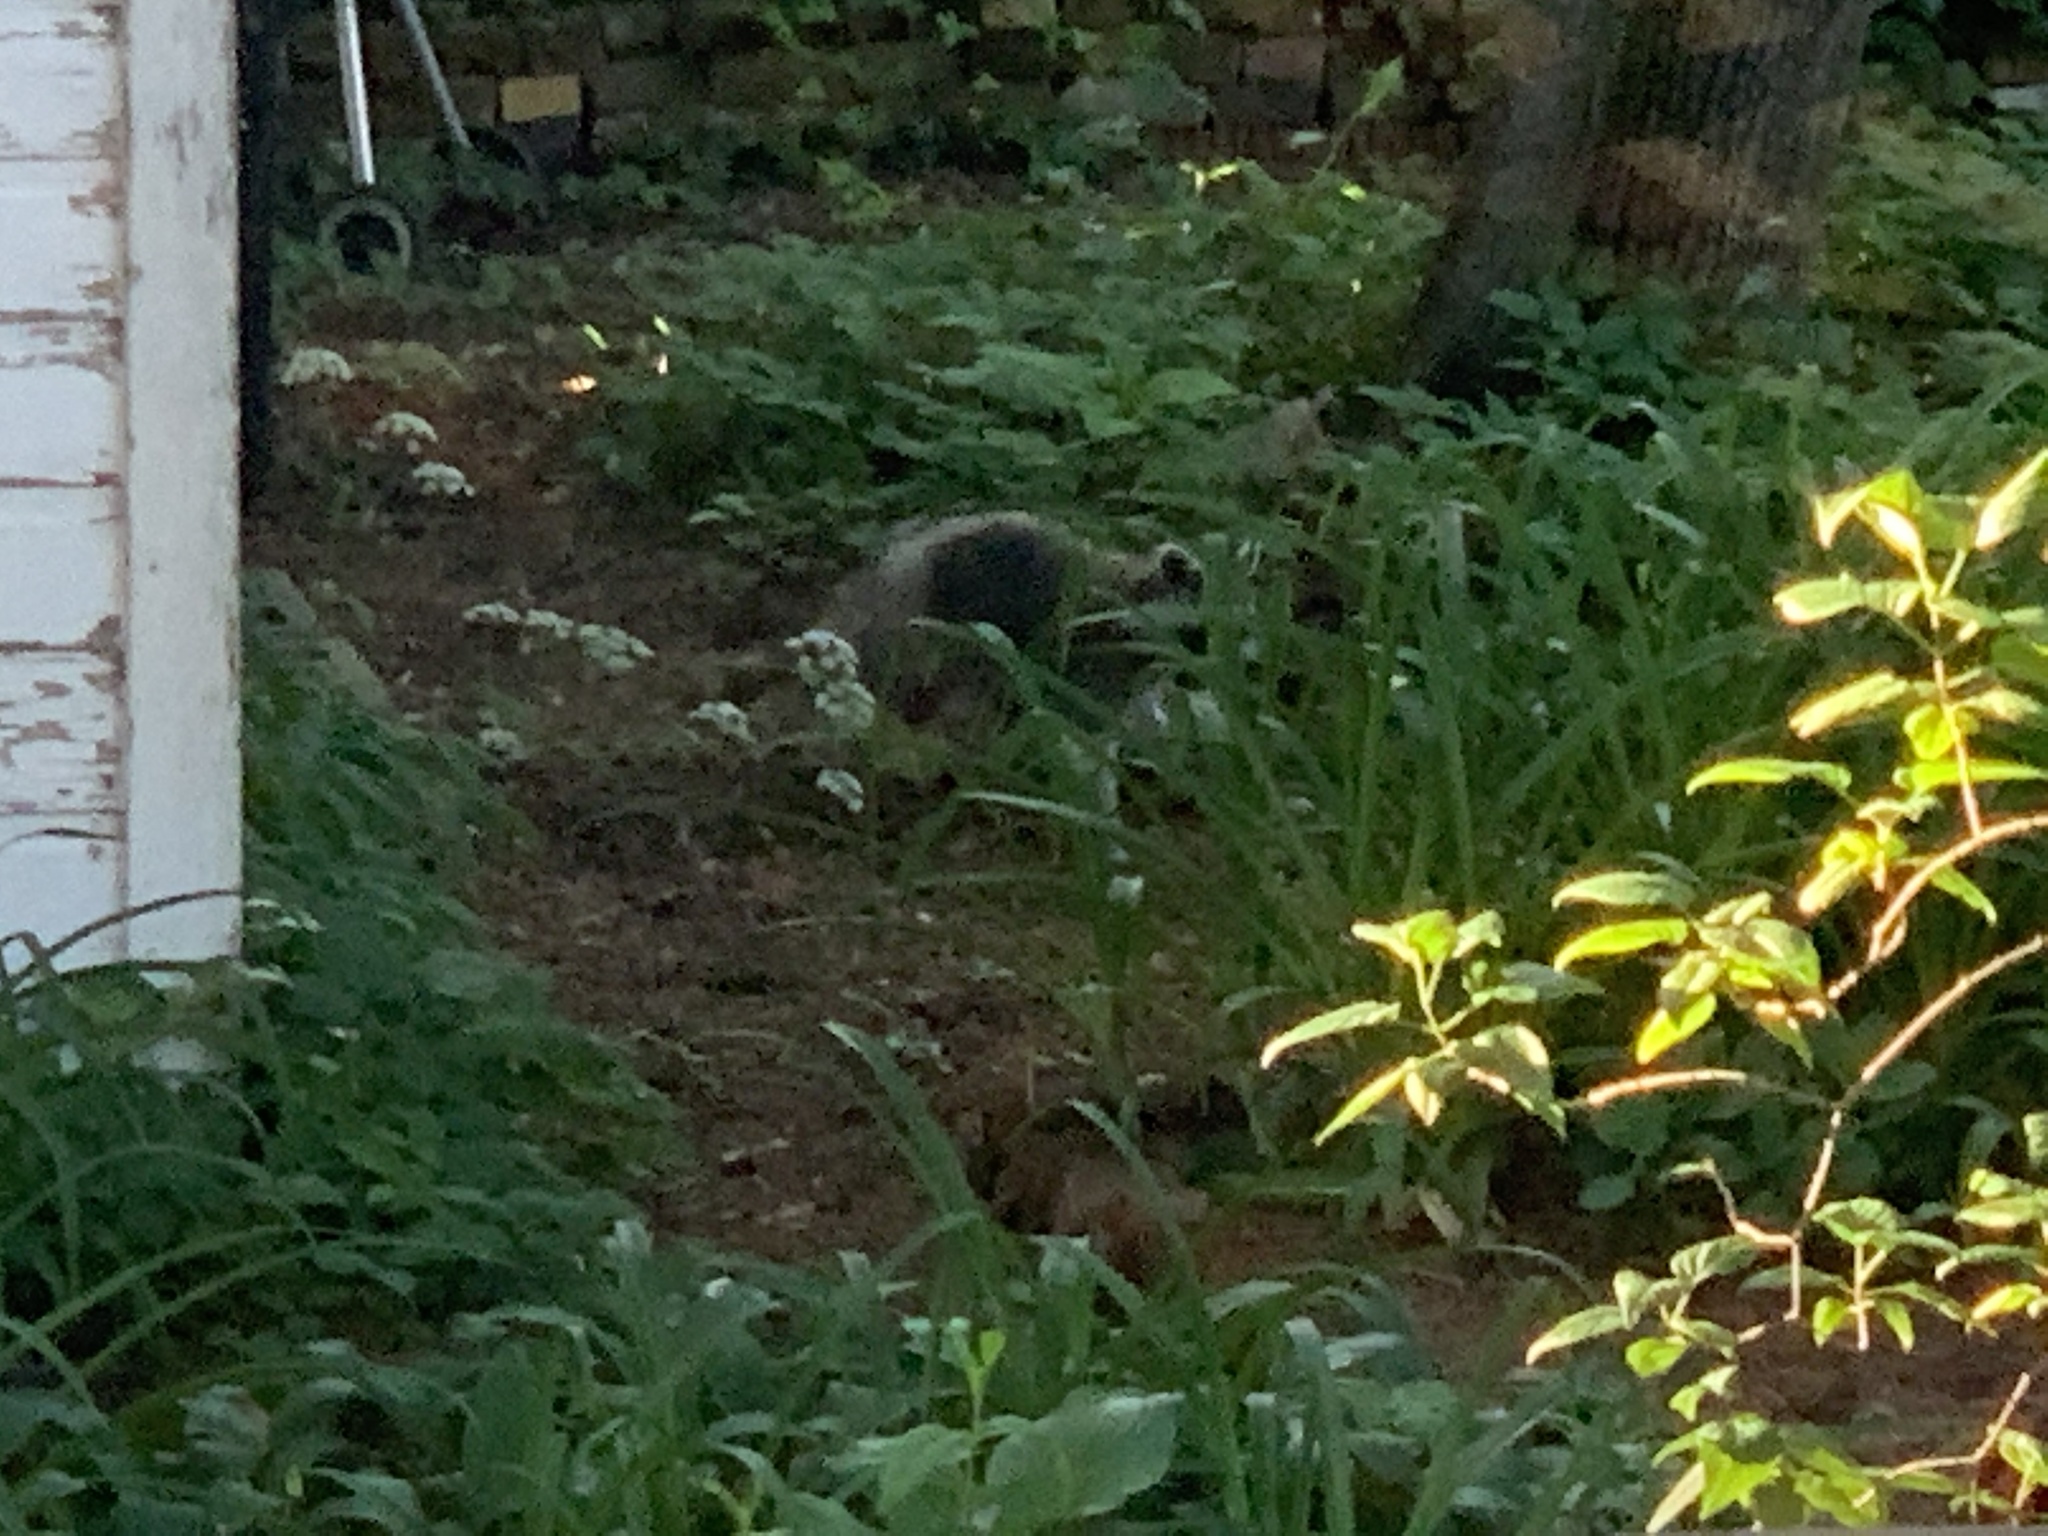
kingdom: Animalia
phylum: Chordata
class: Mammalia
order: Carnivora
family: Procyonidae
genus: Procyon
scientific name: Procyon lotor
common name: Raccoon
